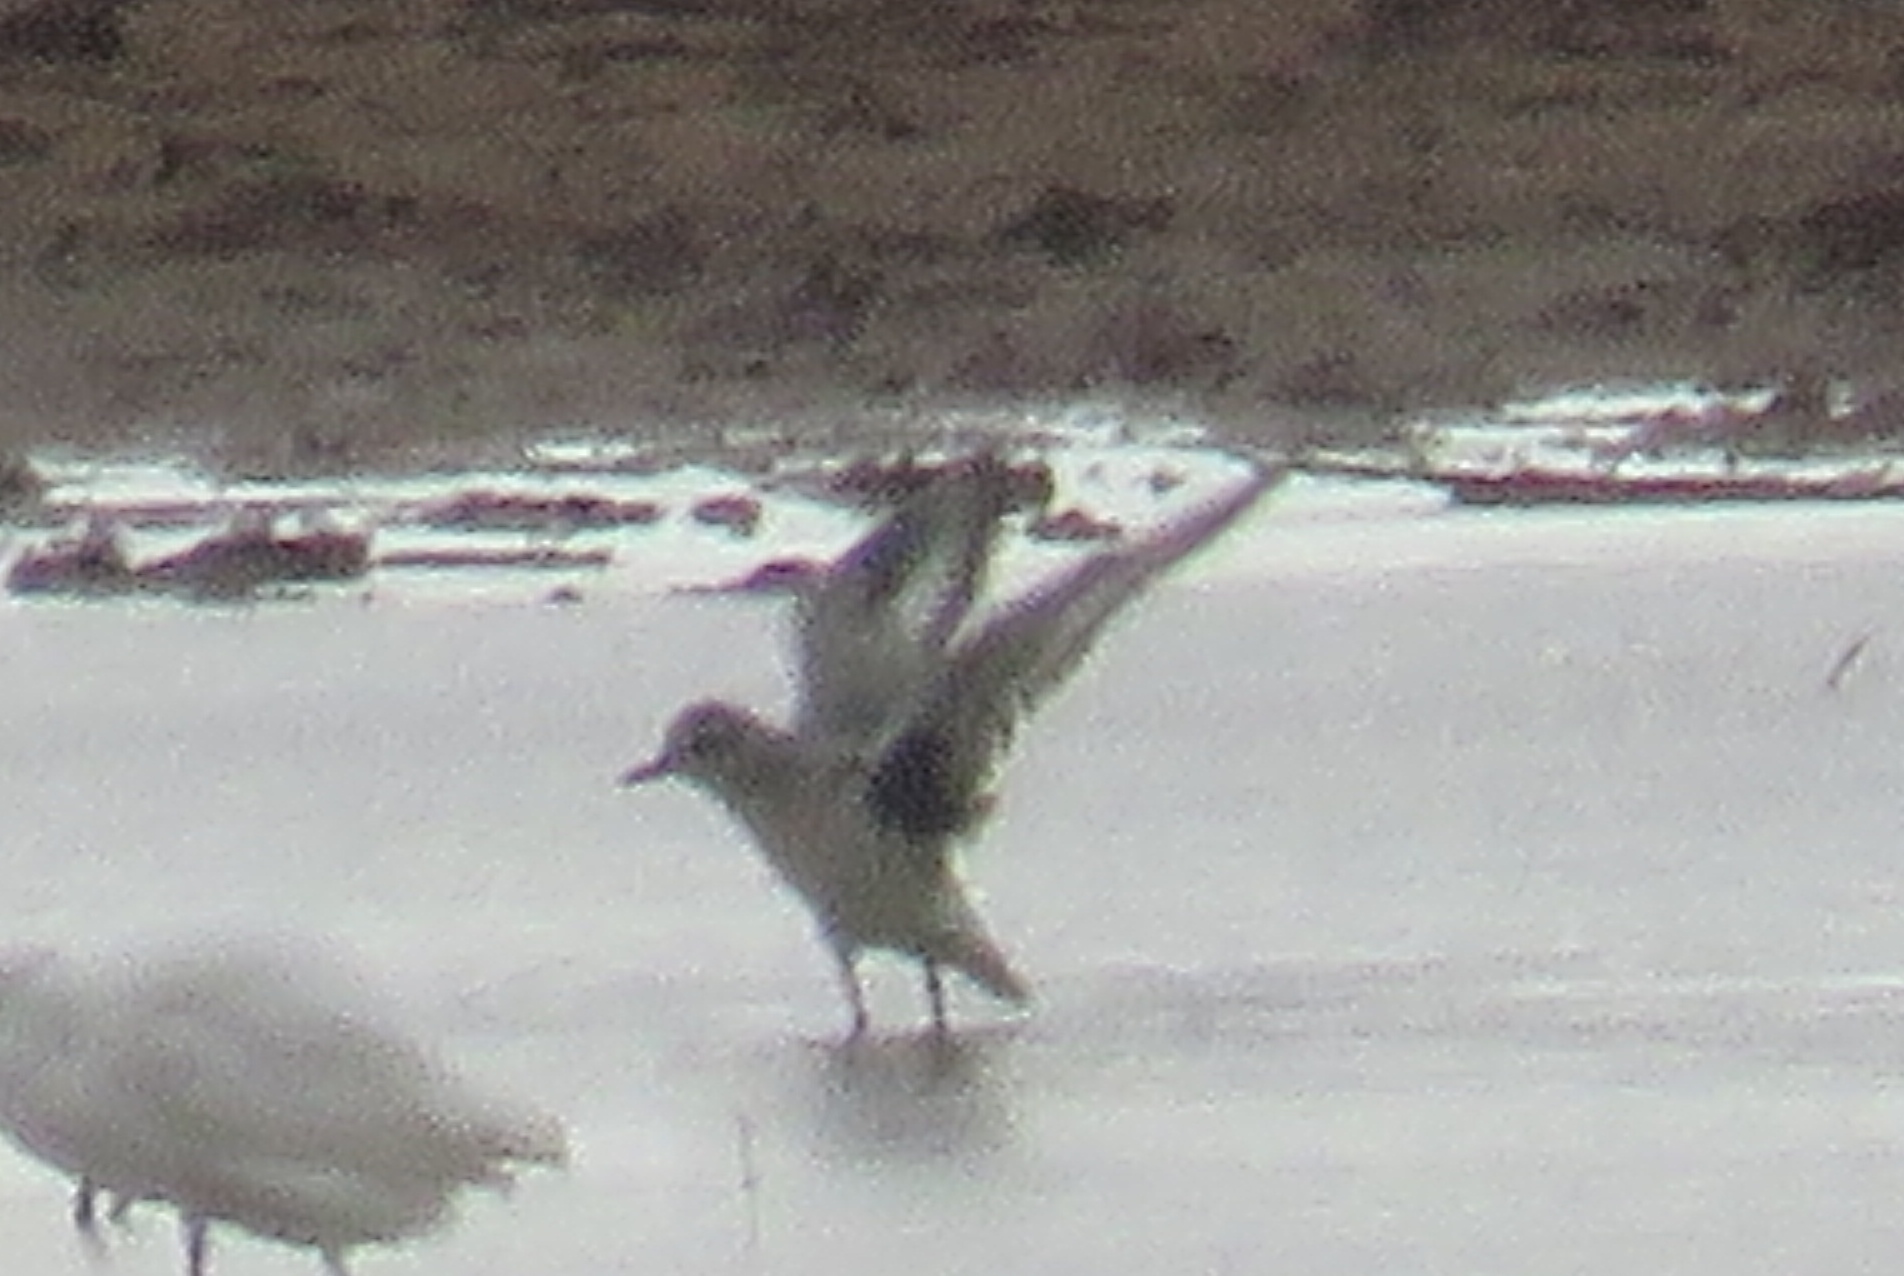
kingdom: Animalia
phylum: Chordata
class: Aves
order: Charadriiformes
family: Charadriidae
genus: Pluvialis
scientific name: Pluvialis squatarola
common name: Grey plover
